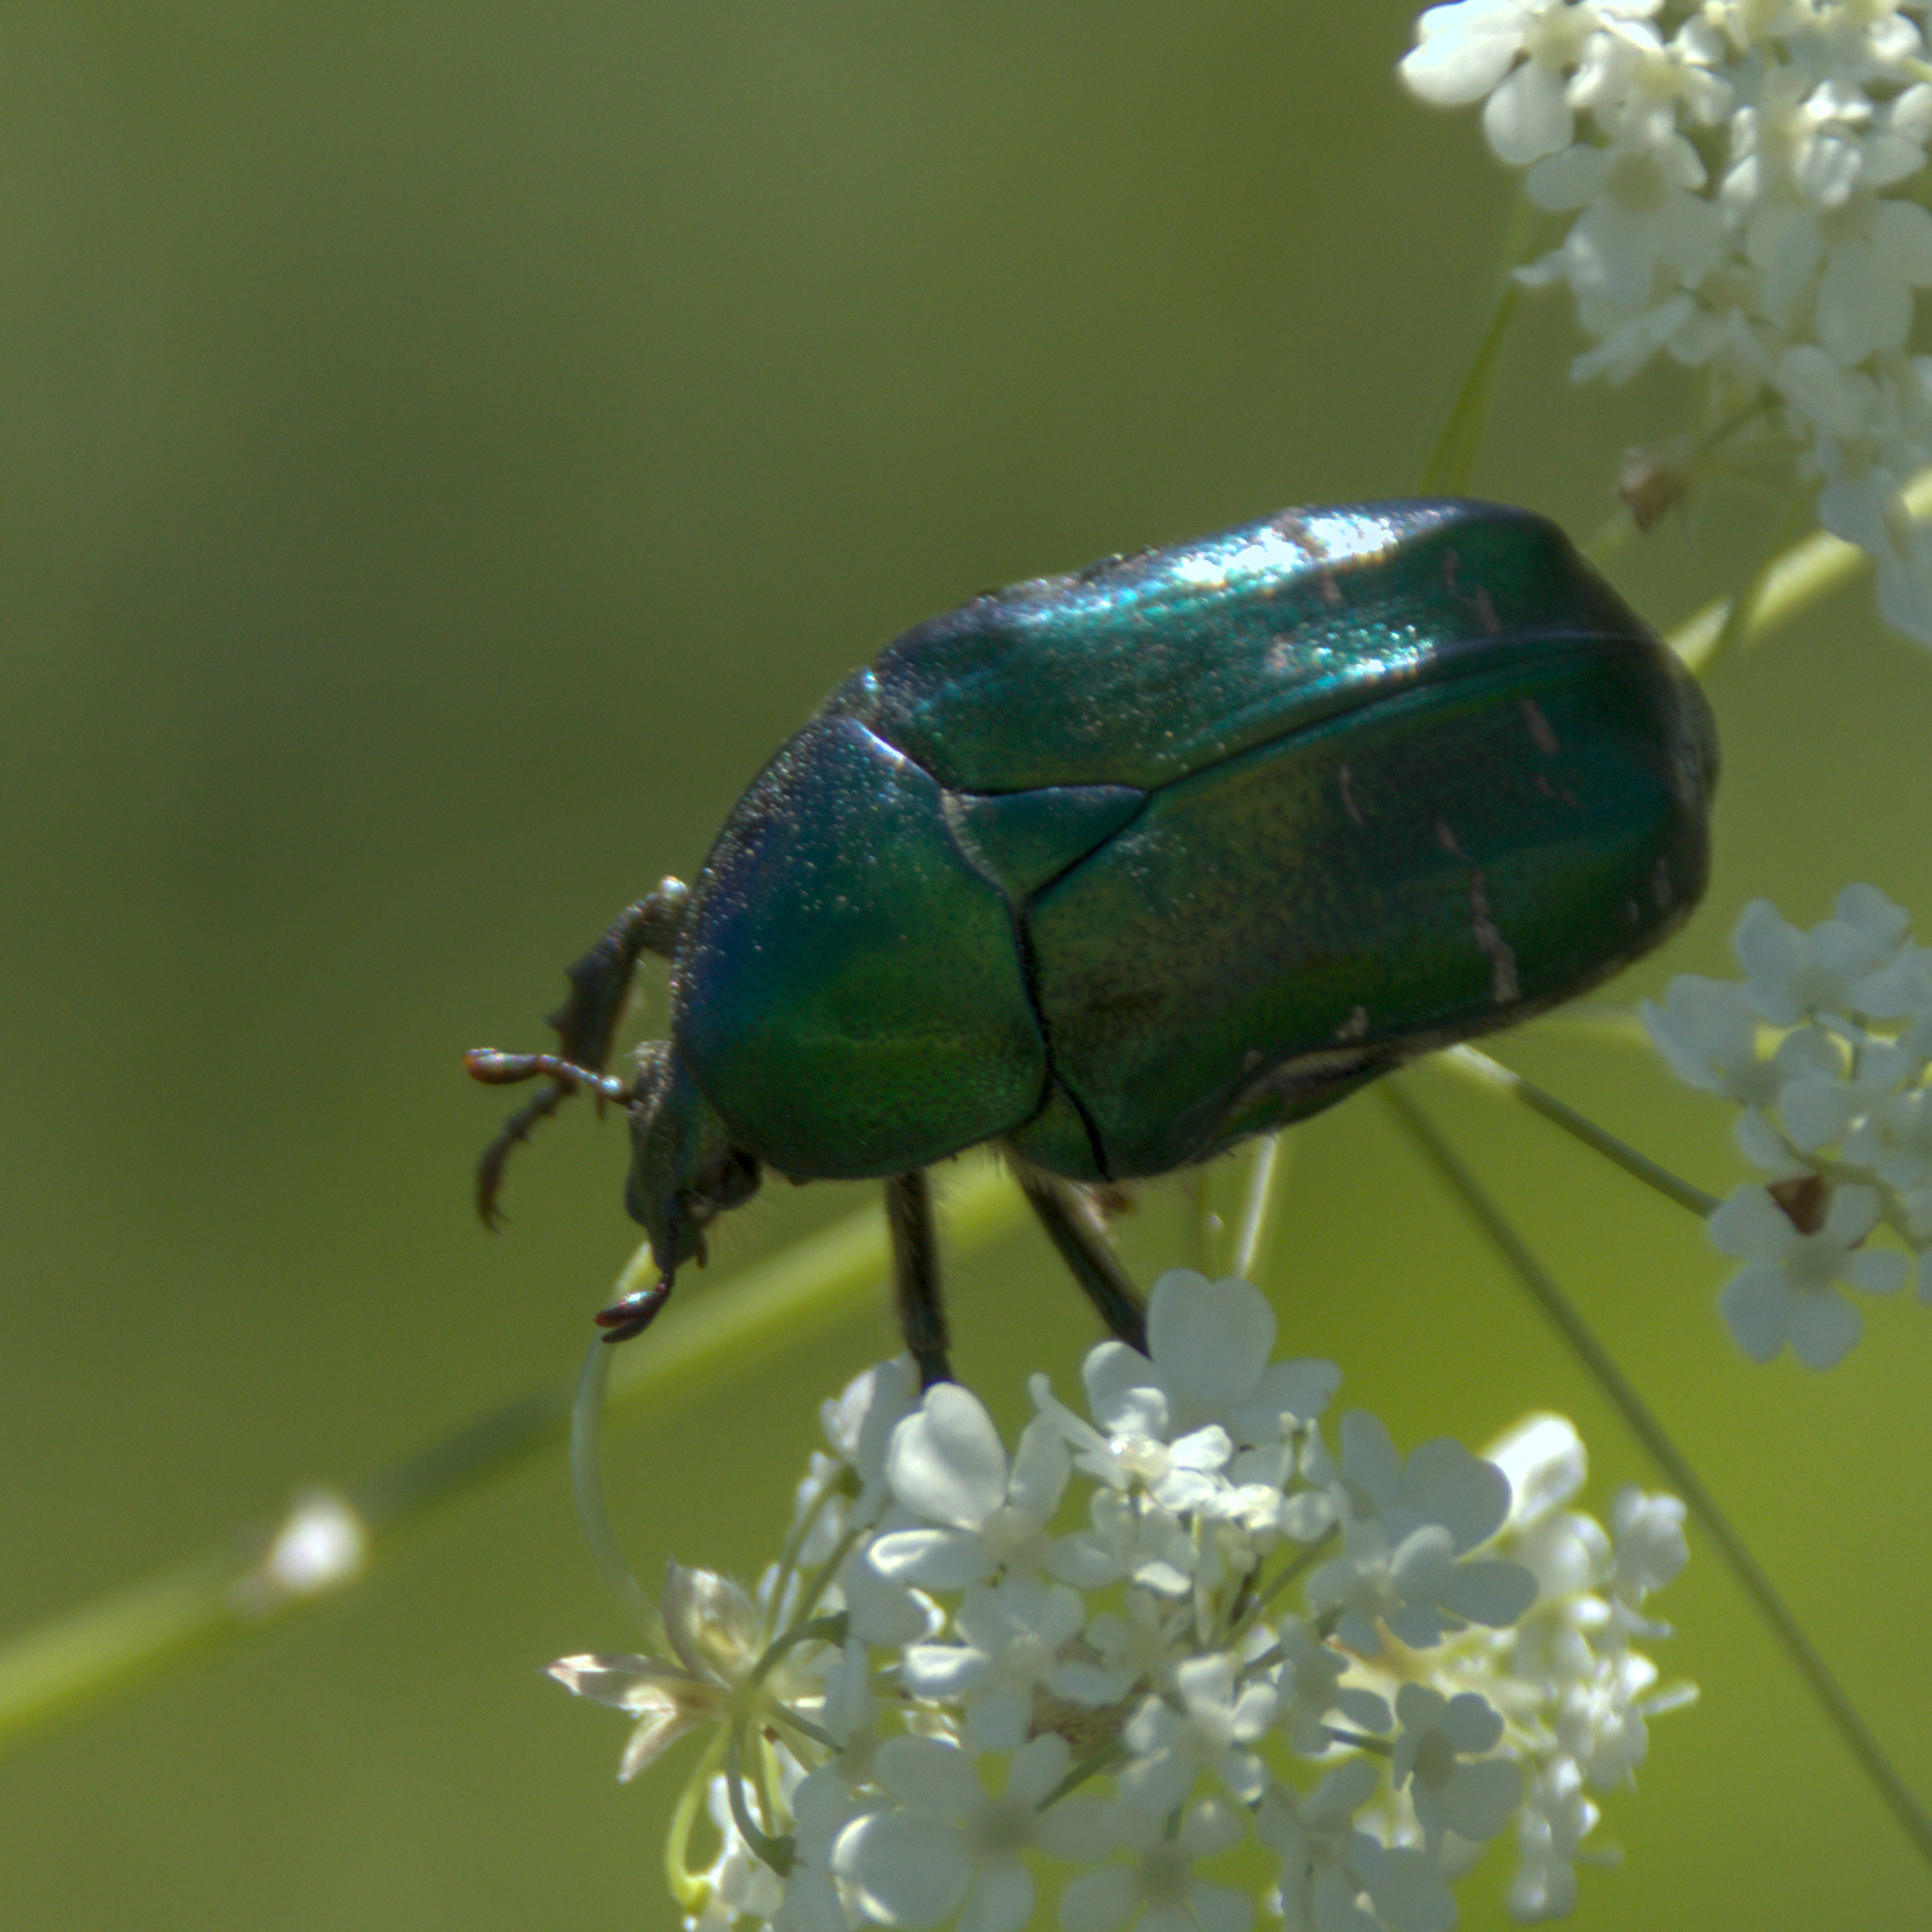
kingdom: Animalia
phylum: Arthropoda
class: Insecta
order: Coleoptera
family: Scarabaeidae
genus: Cetonia
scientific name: Cetonia aurata
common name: Rose chafer
